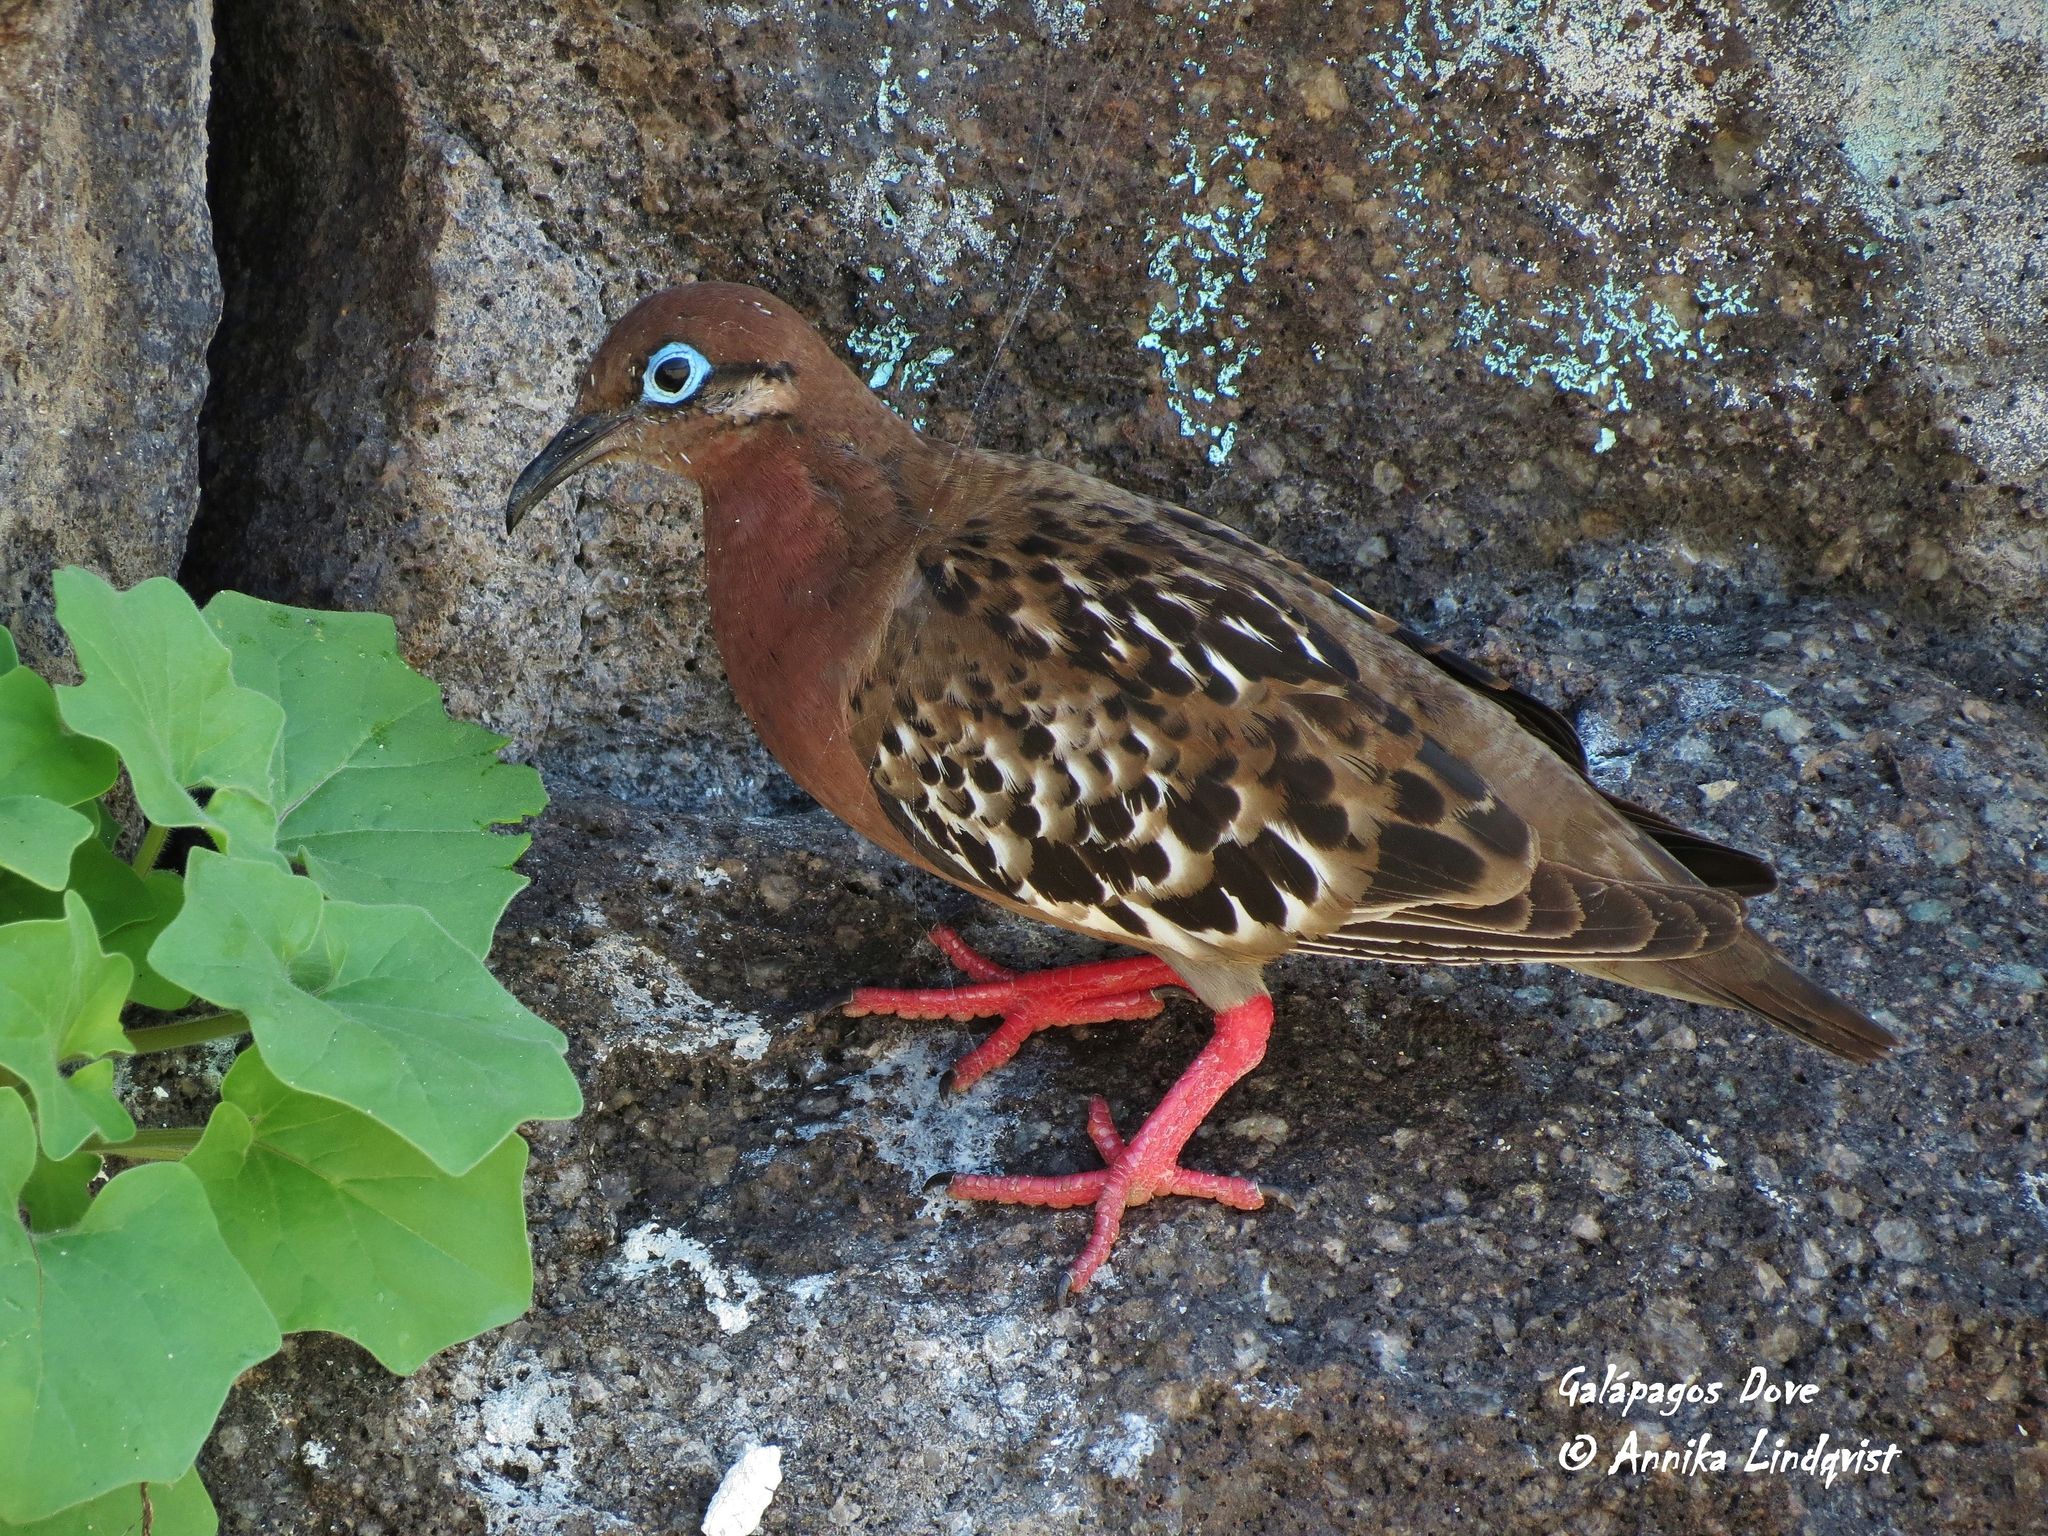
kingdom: Animalia
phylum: Chordata
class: Aves
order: Columbiformes
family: Columbidae
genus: Zenaida
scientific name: Zenaida galapagoensis
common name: Galapagos dove
